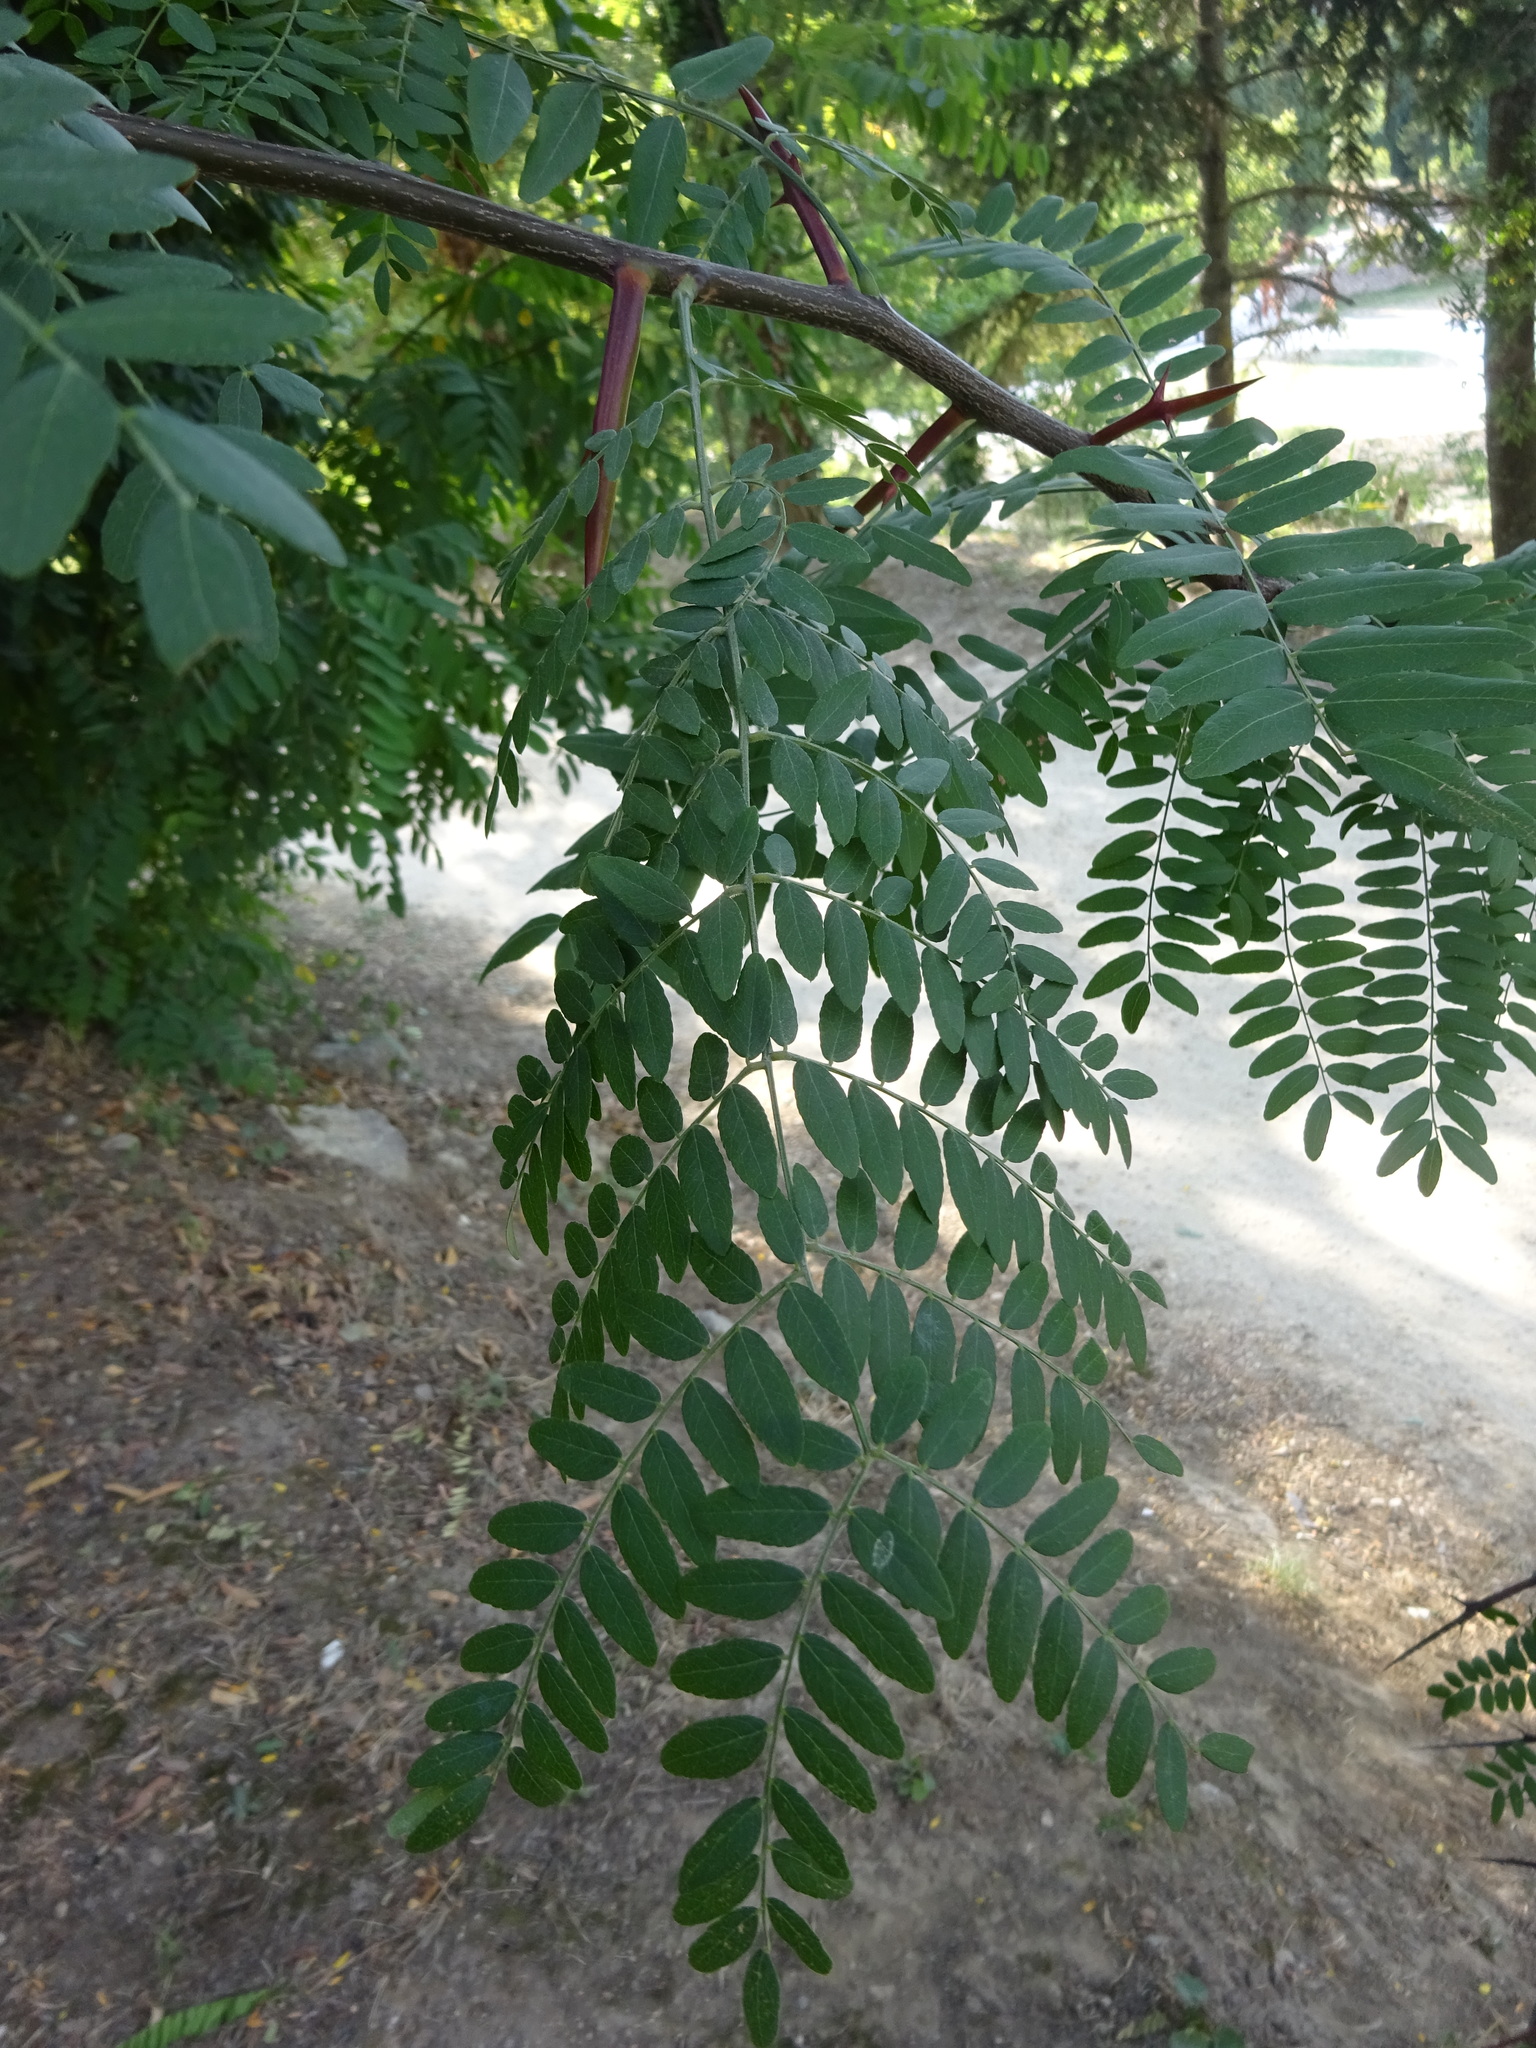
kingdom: Plantae
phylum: Tracheophyta
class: Magnoliopsida
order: Fabales
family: Fabaceae
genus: Gleditsia
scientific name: Gleditsia triacanthos
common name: Common honeylocust
